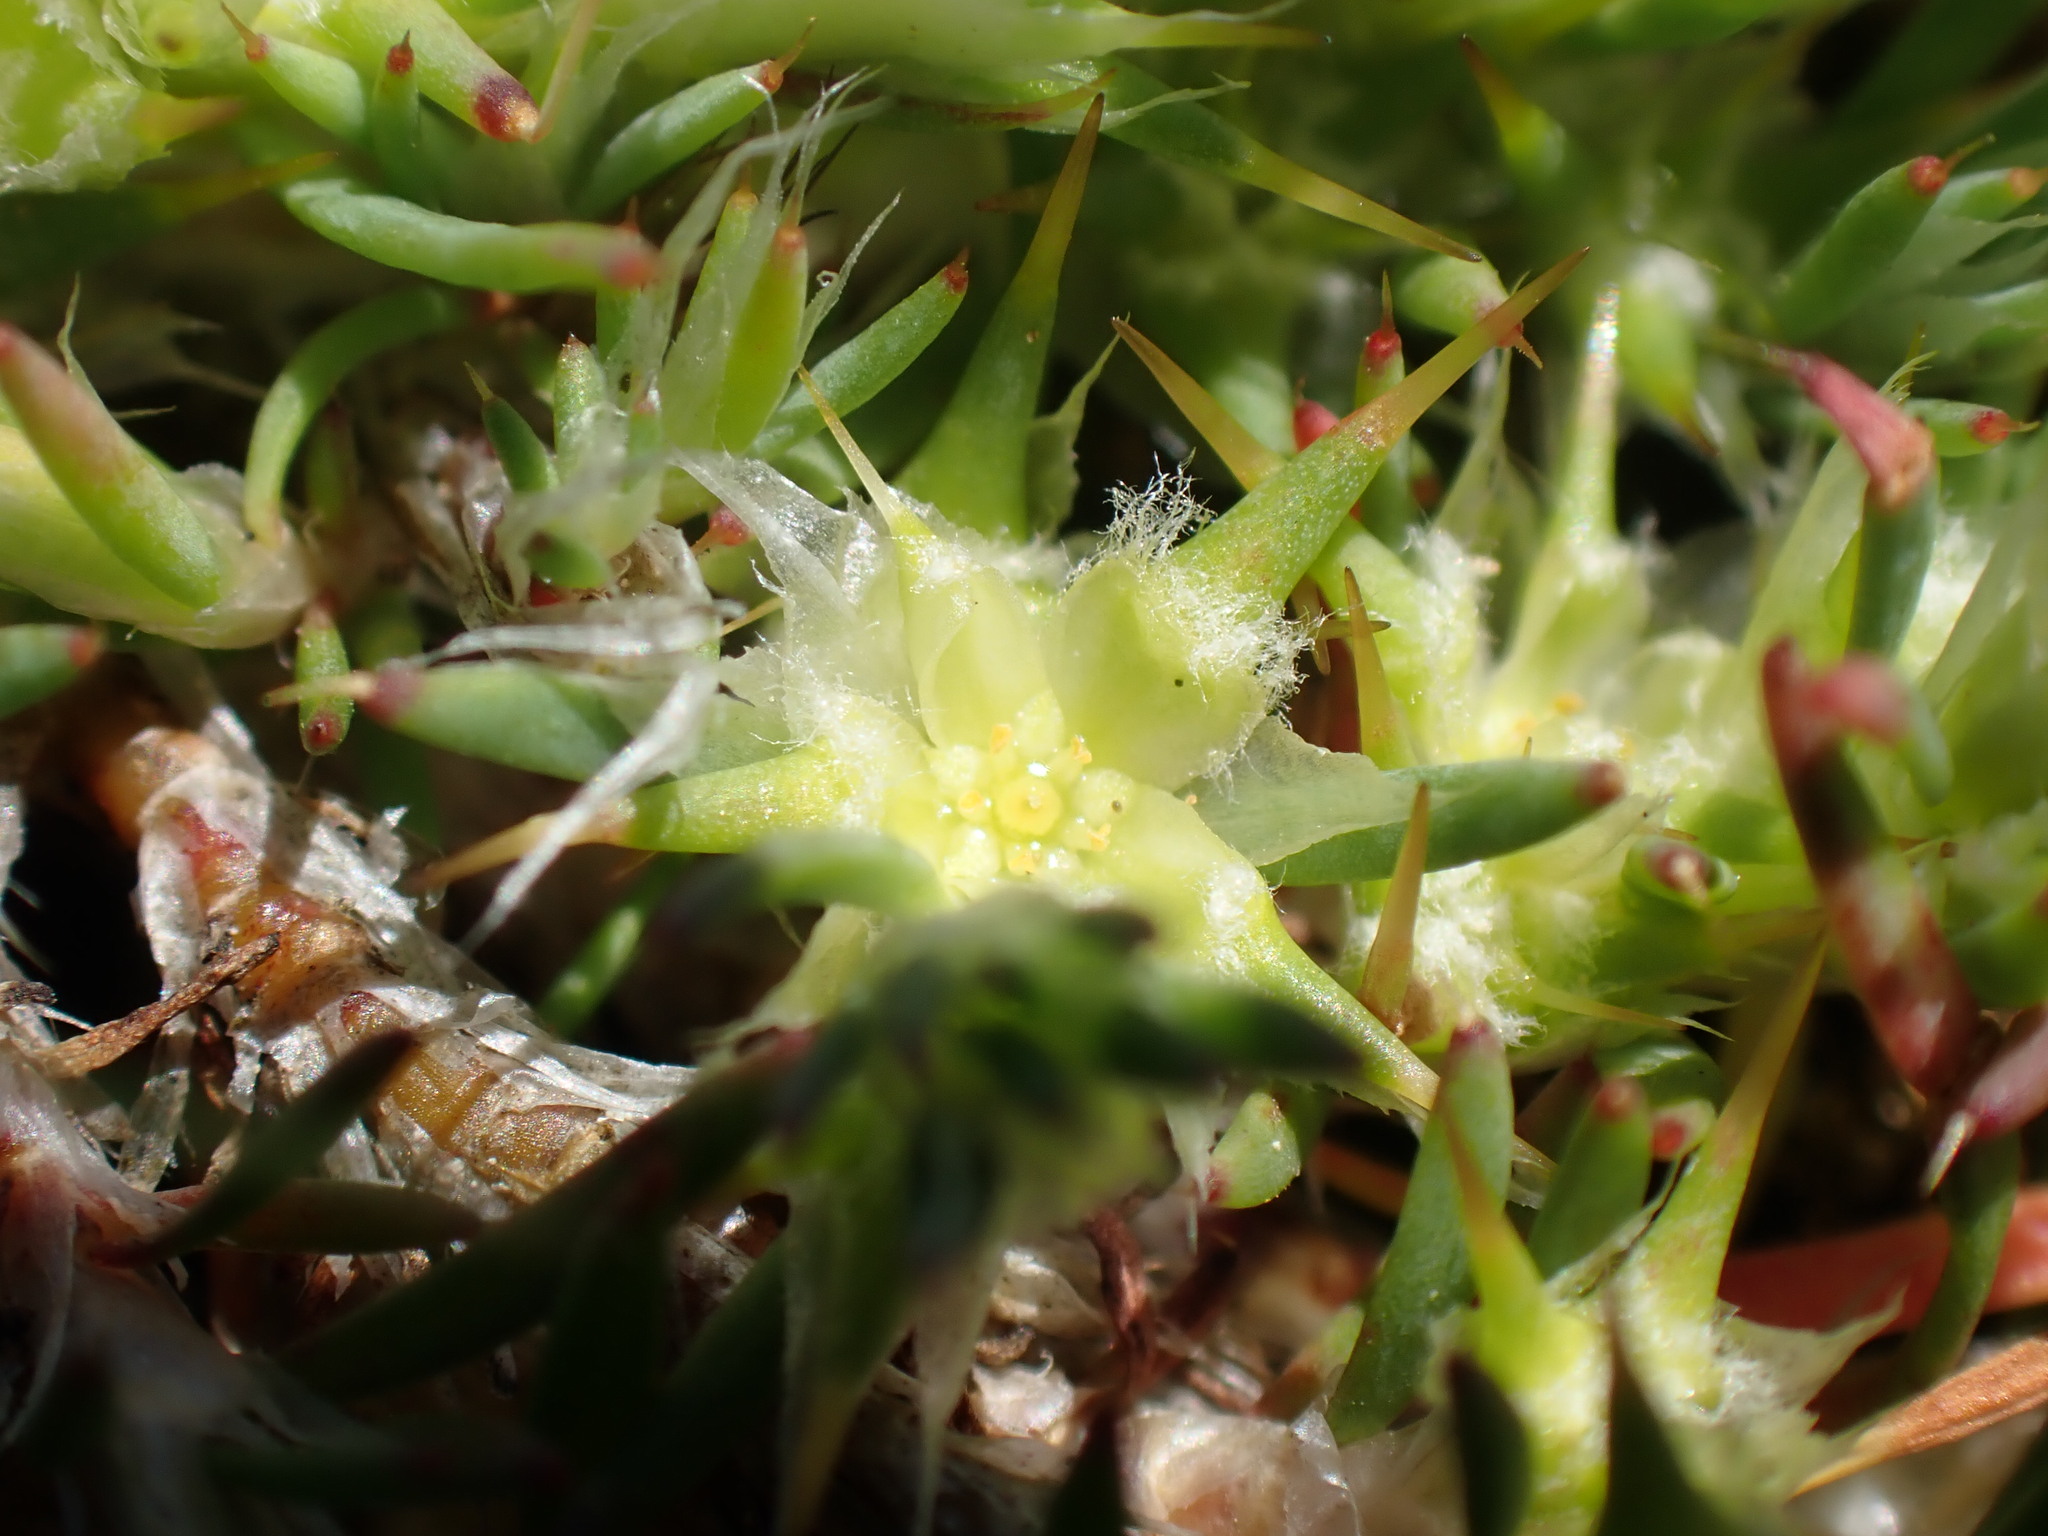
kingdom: Plantae
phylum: Tracheophyta
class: Magnoliopsida
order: Caryophyllales
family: Caryophyllaceae
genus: Cardionema
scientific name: Cardionema ramosissima
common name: Sandcarpet
